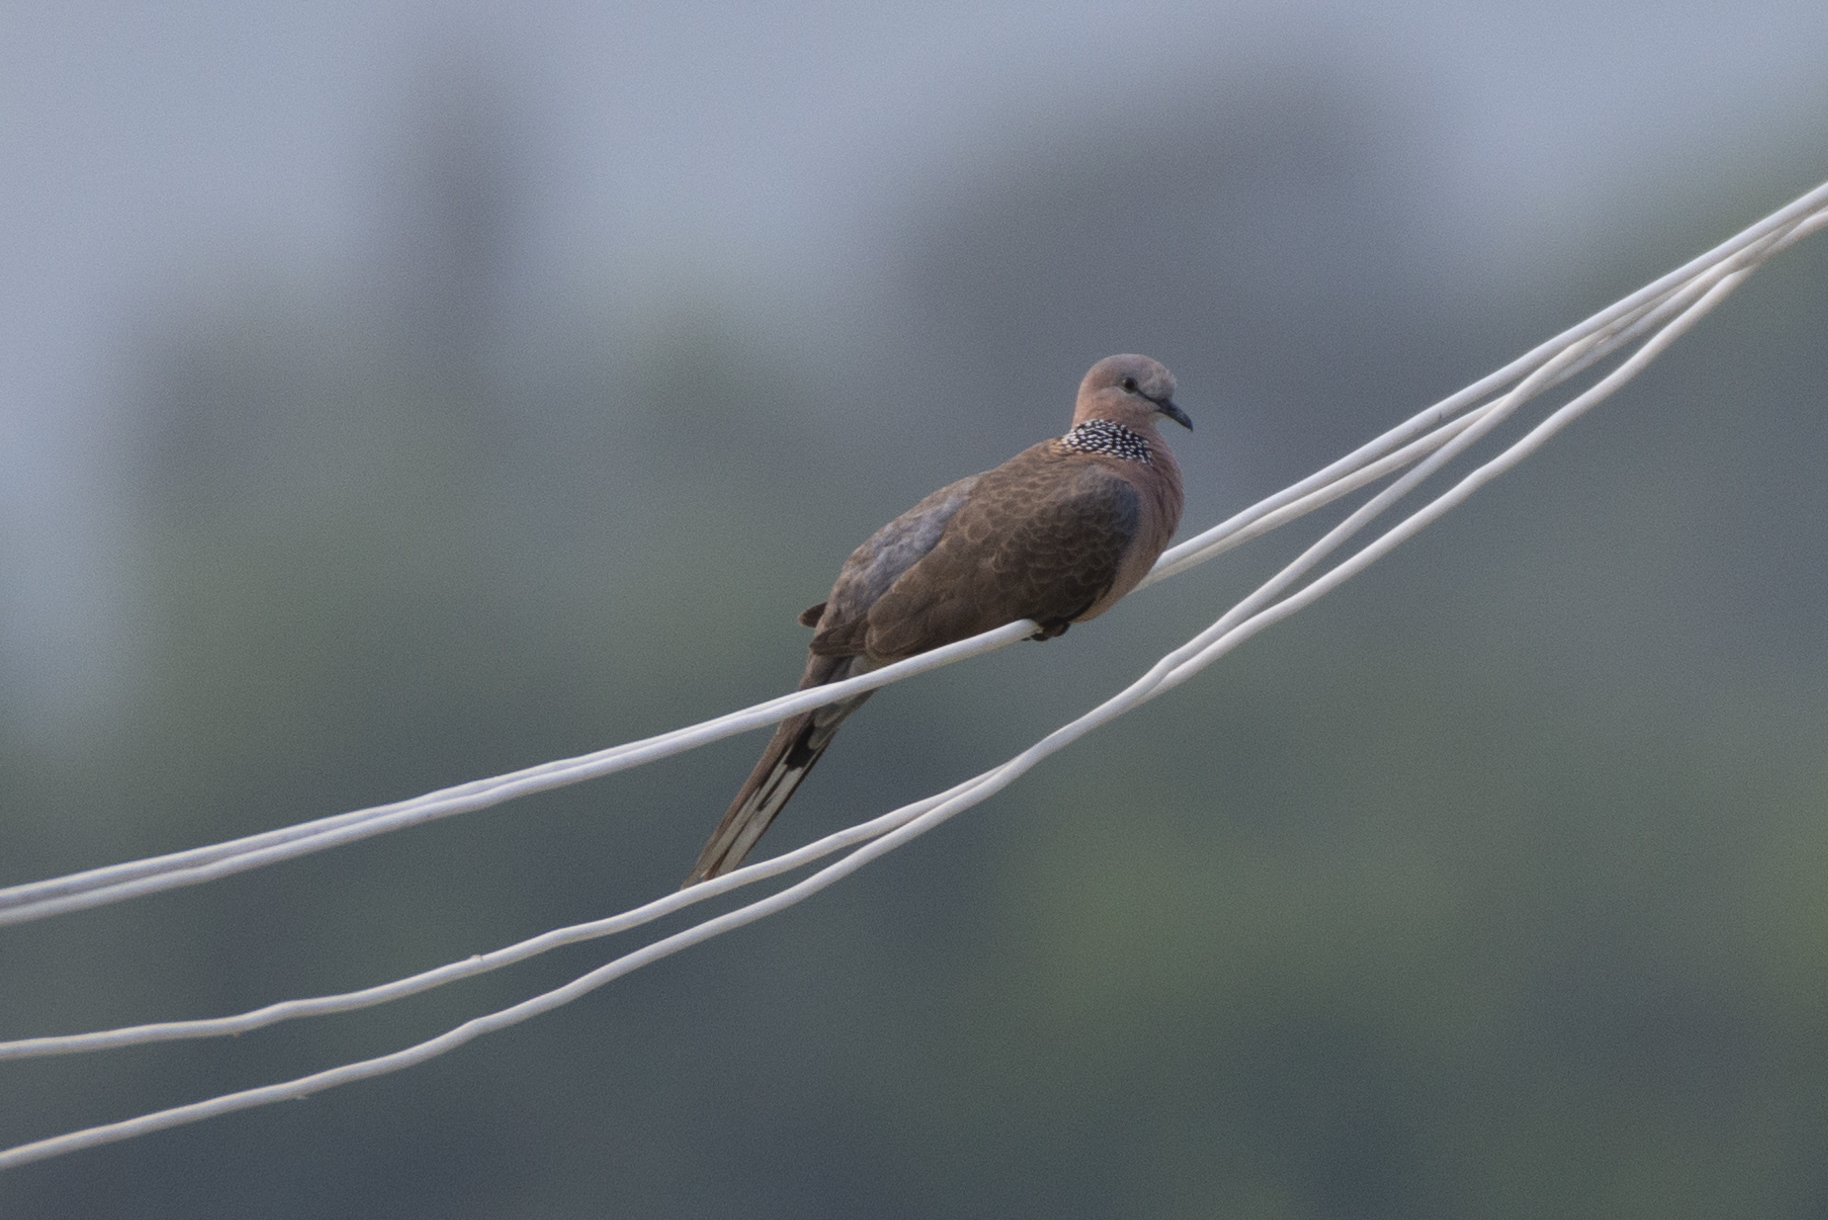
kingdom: Animalia
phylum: Chordata
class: Aves
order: Columbiformes
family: Columbidae
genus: Spilopelia
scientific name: Spilopelia chinensis
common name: Spotted dove
